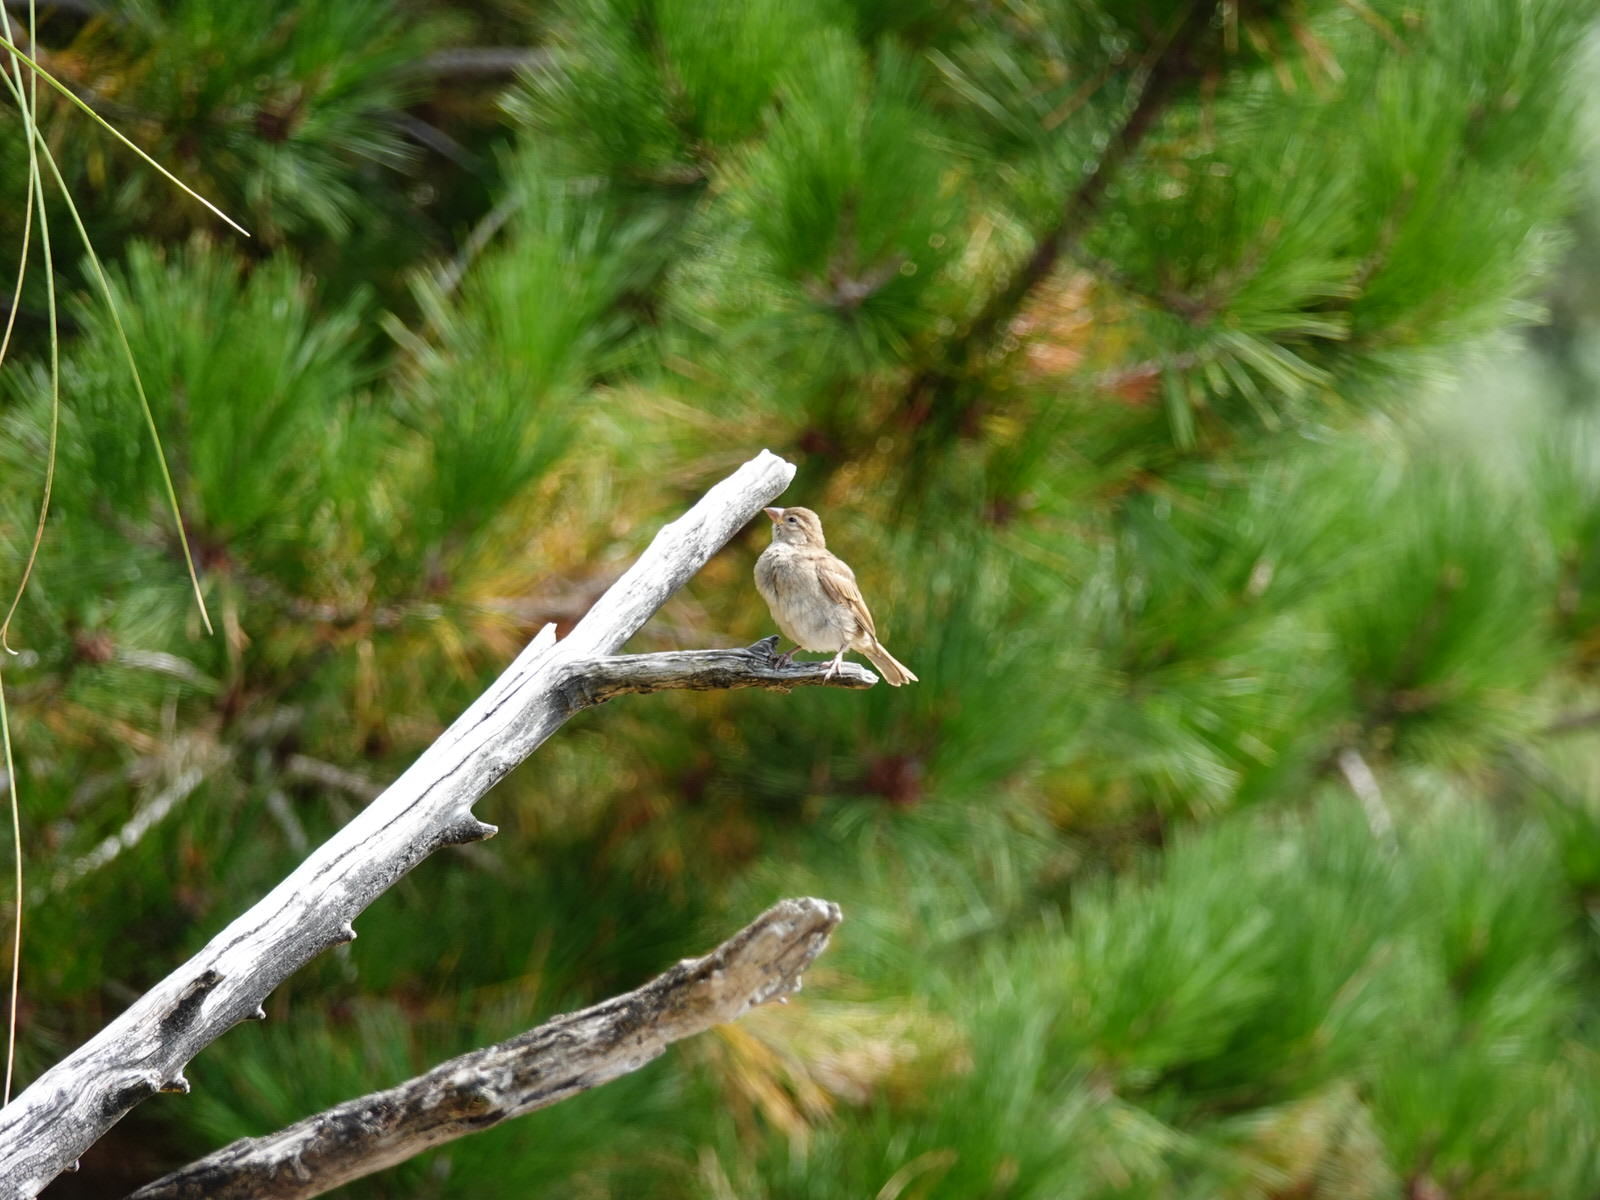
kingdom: Animalia
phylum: Chordata
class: Aves
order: Passeriformes
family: Passeridae
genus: Passer
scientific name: Passer domesticus
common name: House sparrow
